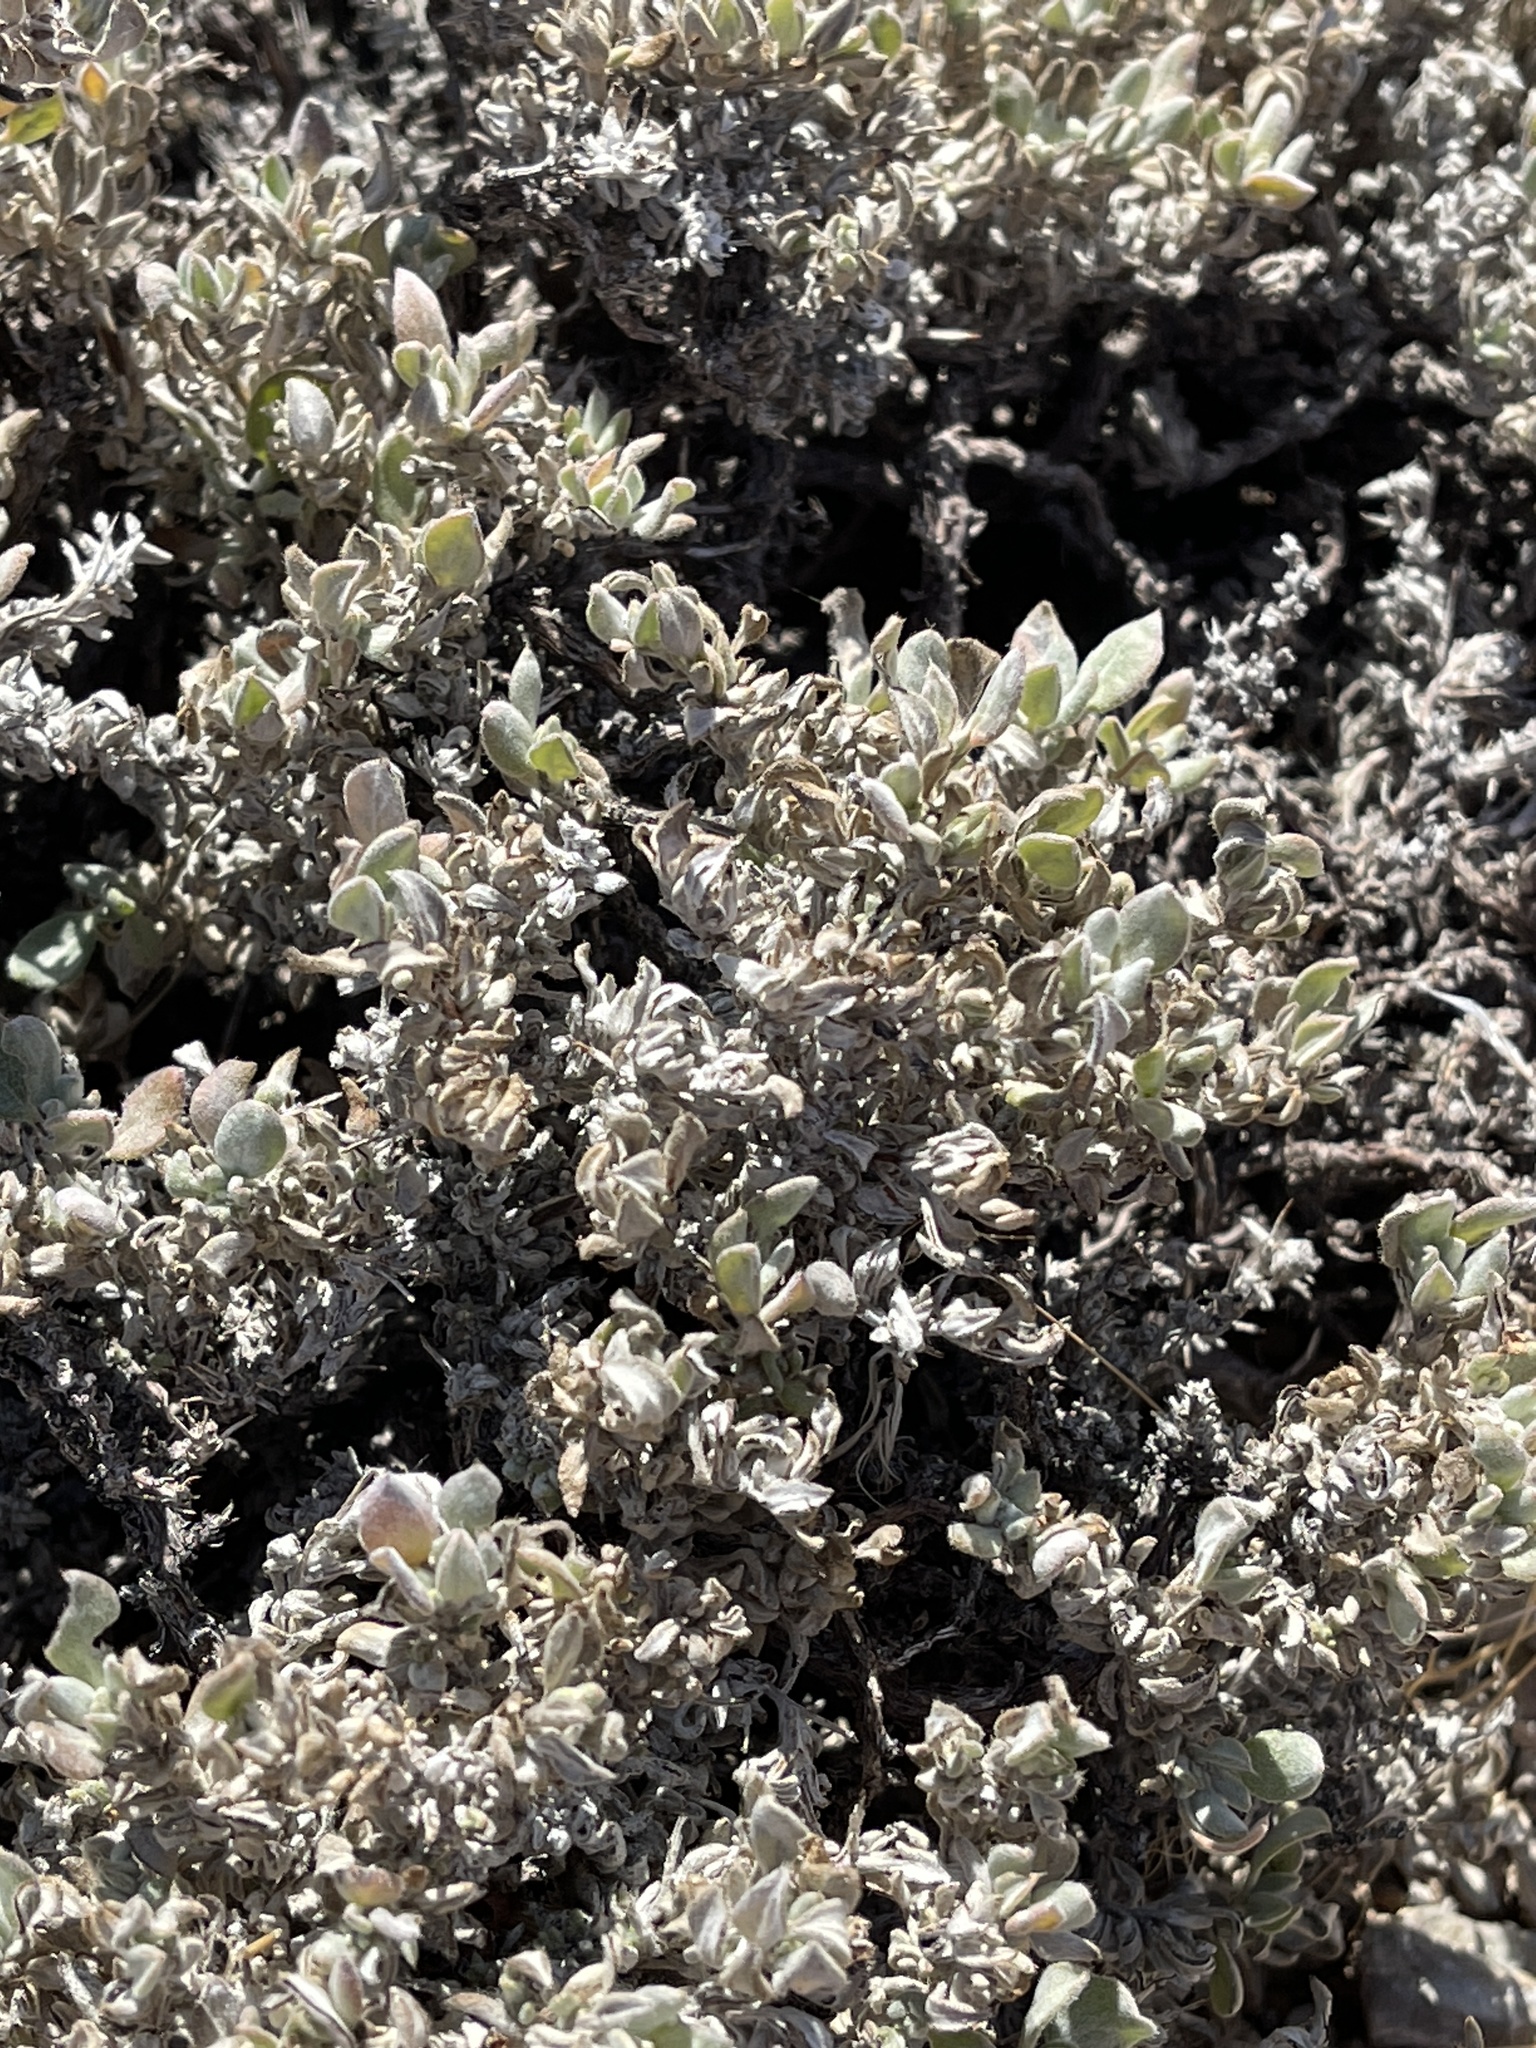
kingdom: Plantae
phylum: Tracheophyta
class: Magnoliopsida
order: Boraginales
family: Ehretiaceae
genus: Tiquilia
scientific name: Tiquilia canescens
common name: Hairy tiquilia
